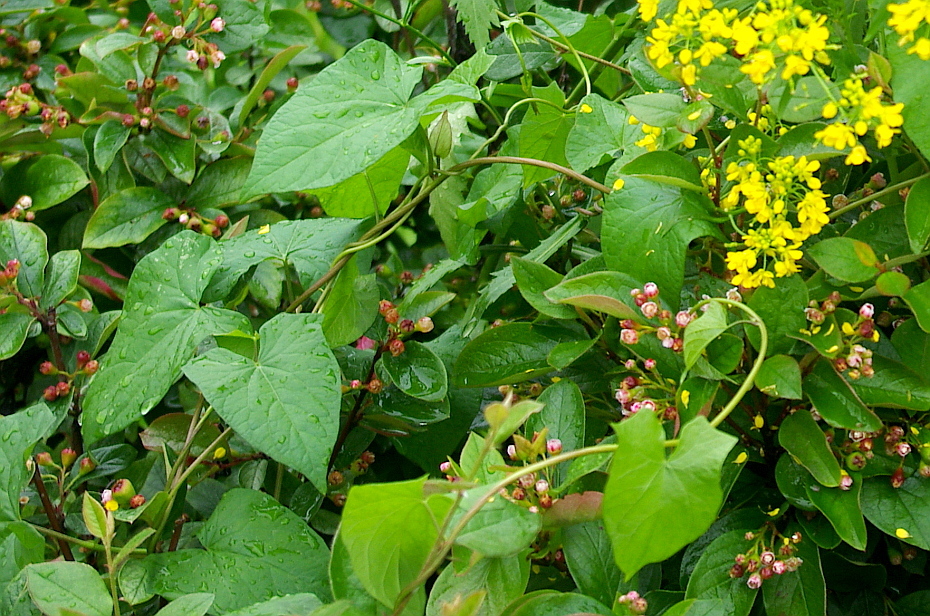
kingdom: Plantae
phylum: Tracheophyta
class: Magnoliopsida
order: Solanales
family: Convolvulaceae
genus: Calystegia
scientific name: Calystegia sepium
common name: Hedge bindweed
